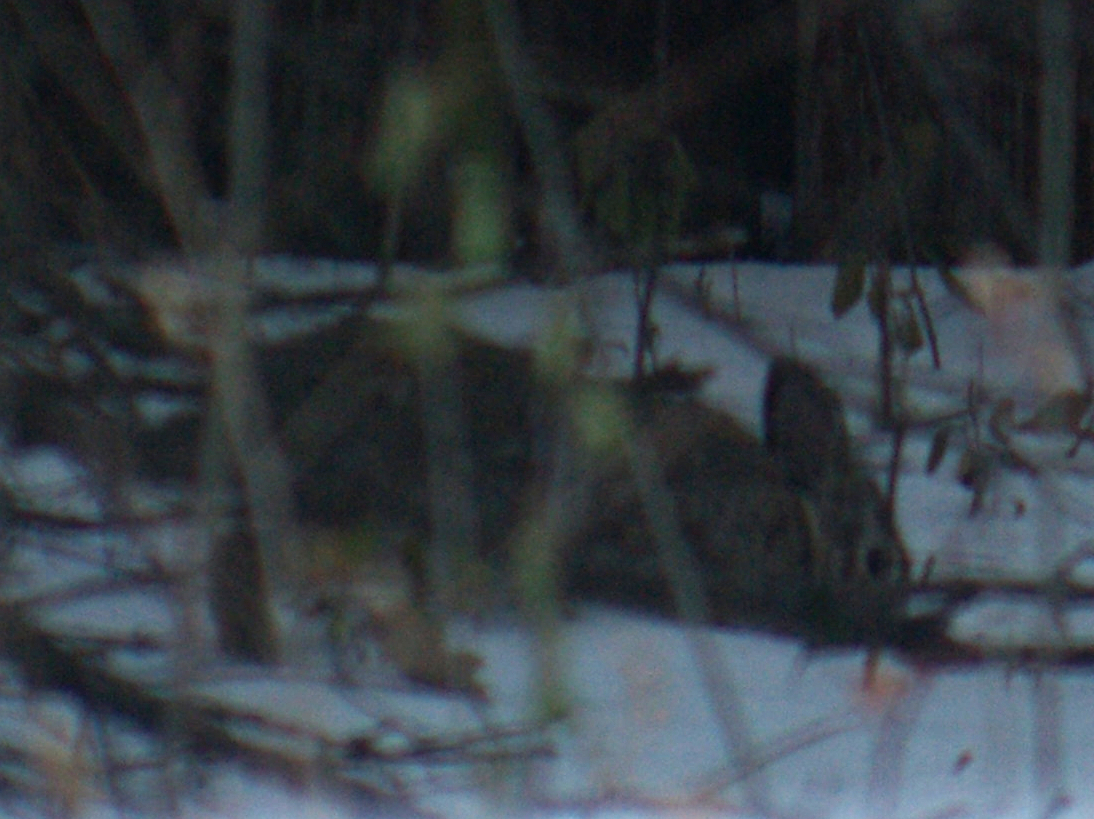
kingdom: Animalia
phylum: Chordata
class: Mammalia
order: Lagomorpha
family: Leporidae
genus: Sylvilagus
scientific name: Sylvilagus floridanus
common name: Eastern cottontail
